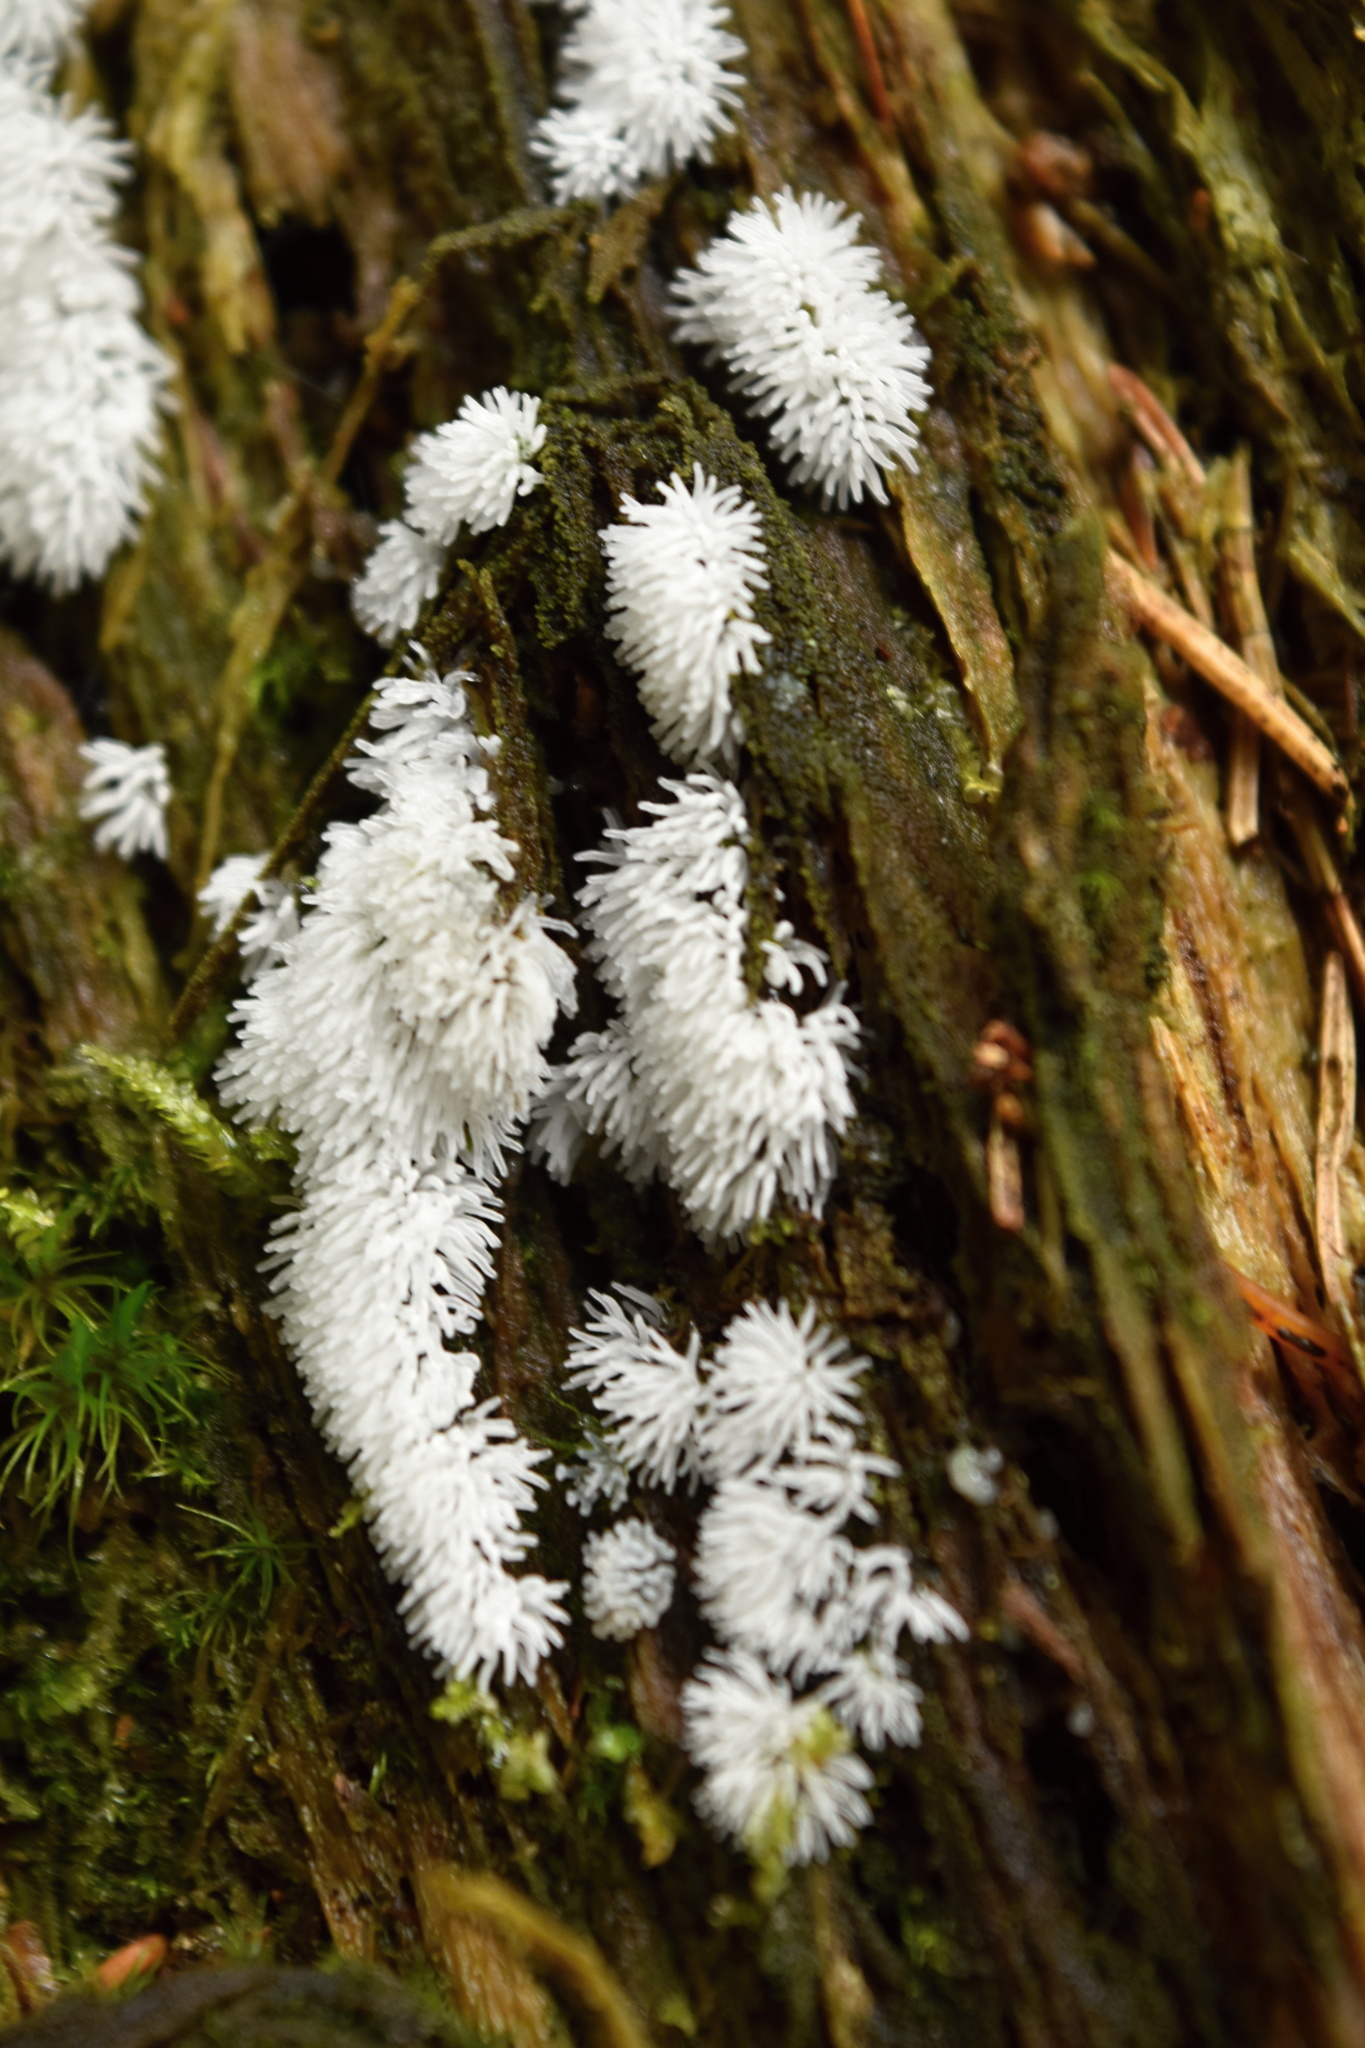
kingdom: Protozoa
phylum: Mycetozoa
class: Protosteliomycetes
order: Ceratiomyxales
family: Ceratiomyxaceae
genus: Ceratiomyxa
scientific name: Ceratiomyxa fruticulosa
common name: Honeycomb coral slime mold
